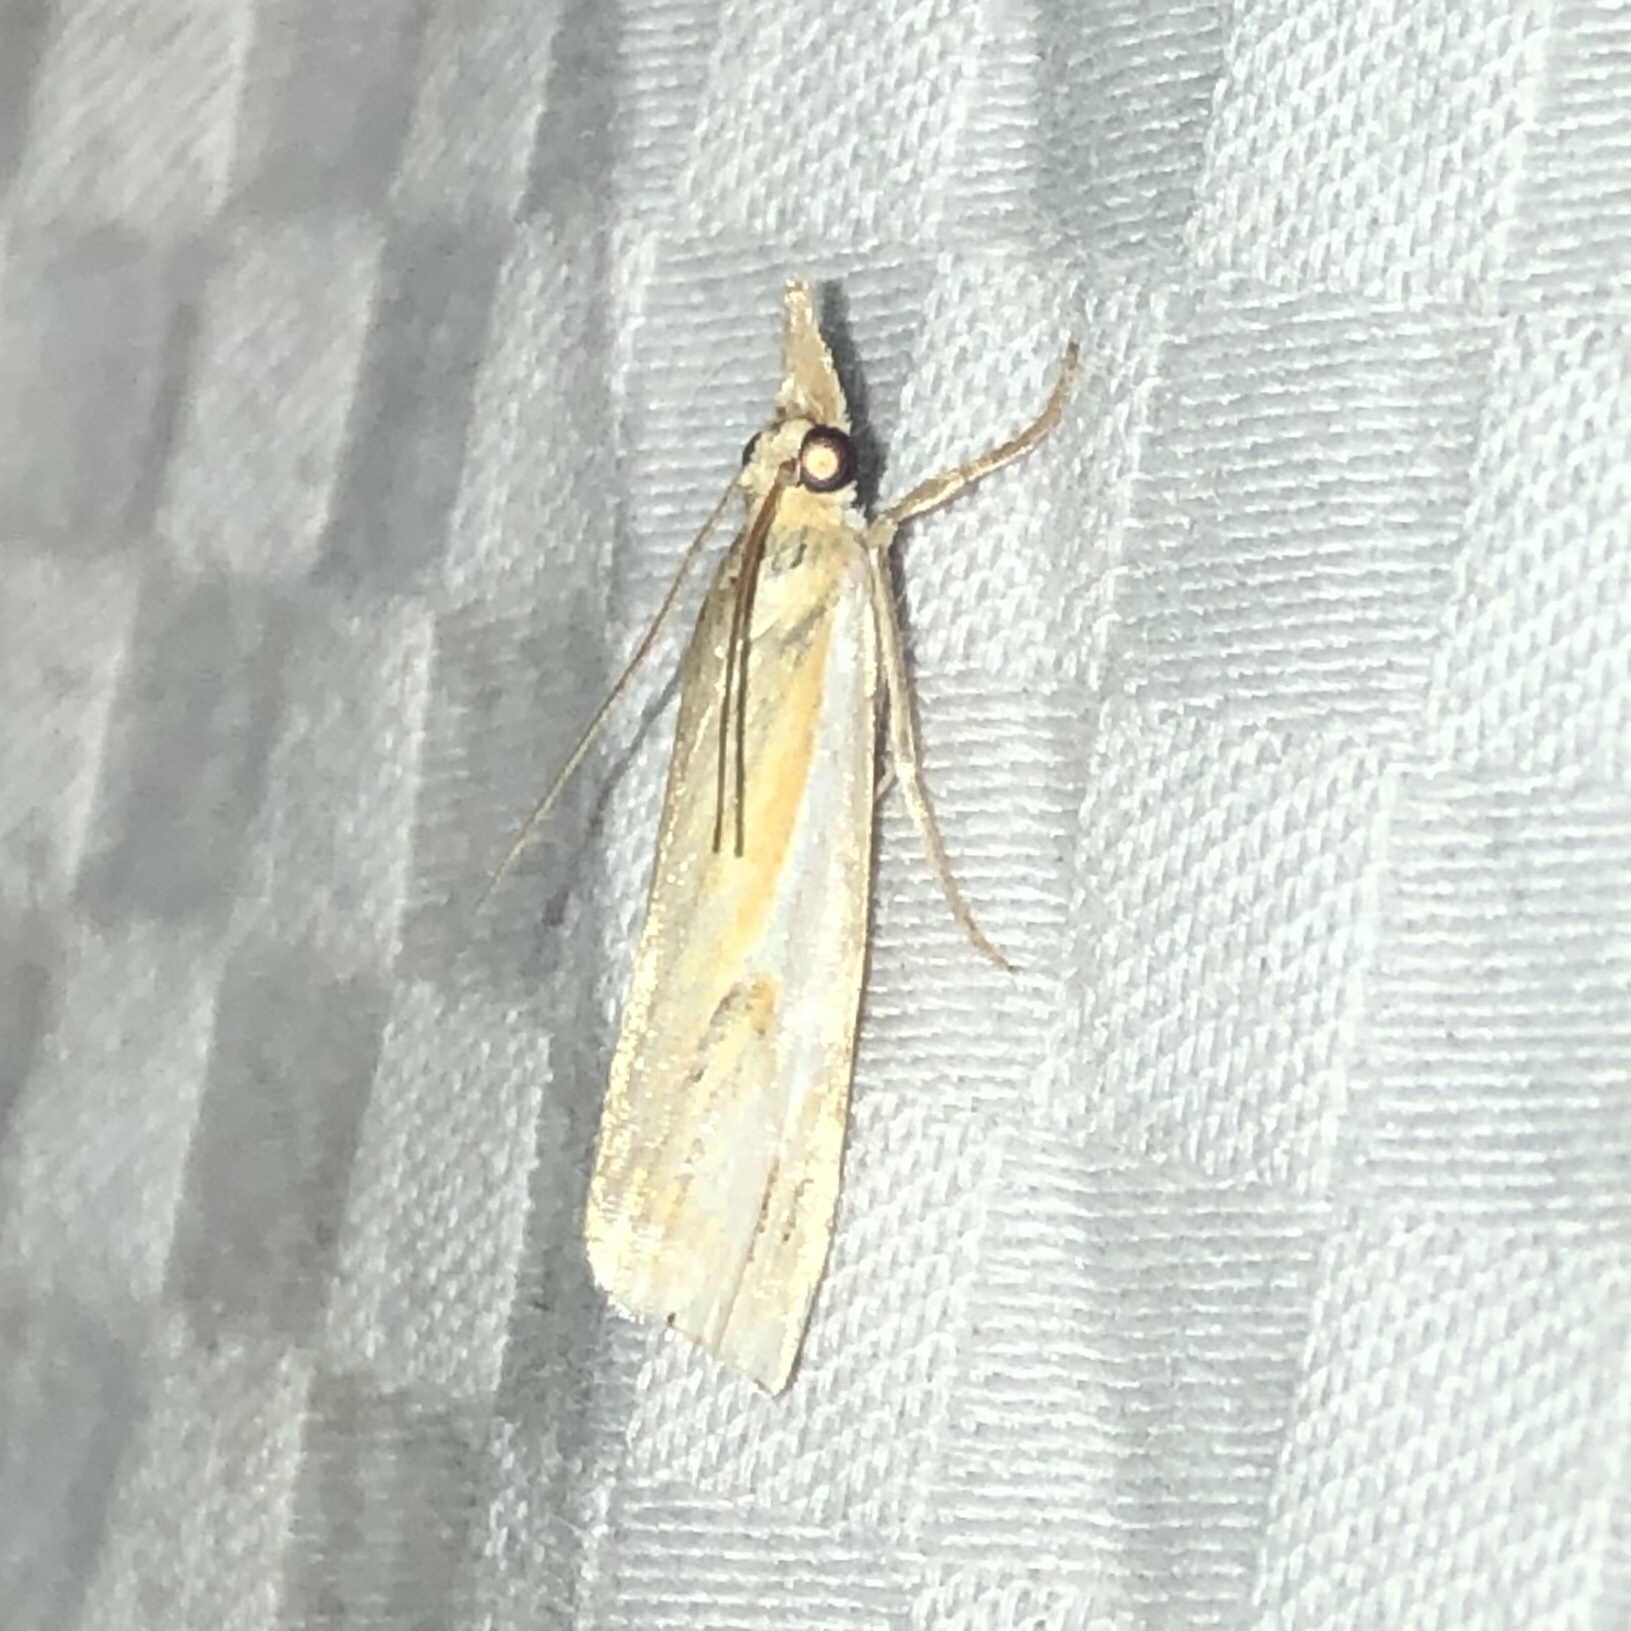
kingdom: Animalia
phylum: Arthropoda
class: Insecta
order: Lepidoptera
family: Crambidae
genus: Crambus
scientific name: Crambus agitatellus
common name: Double-banded grass-veneer
